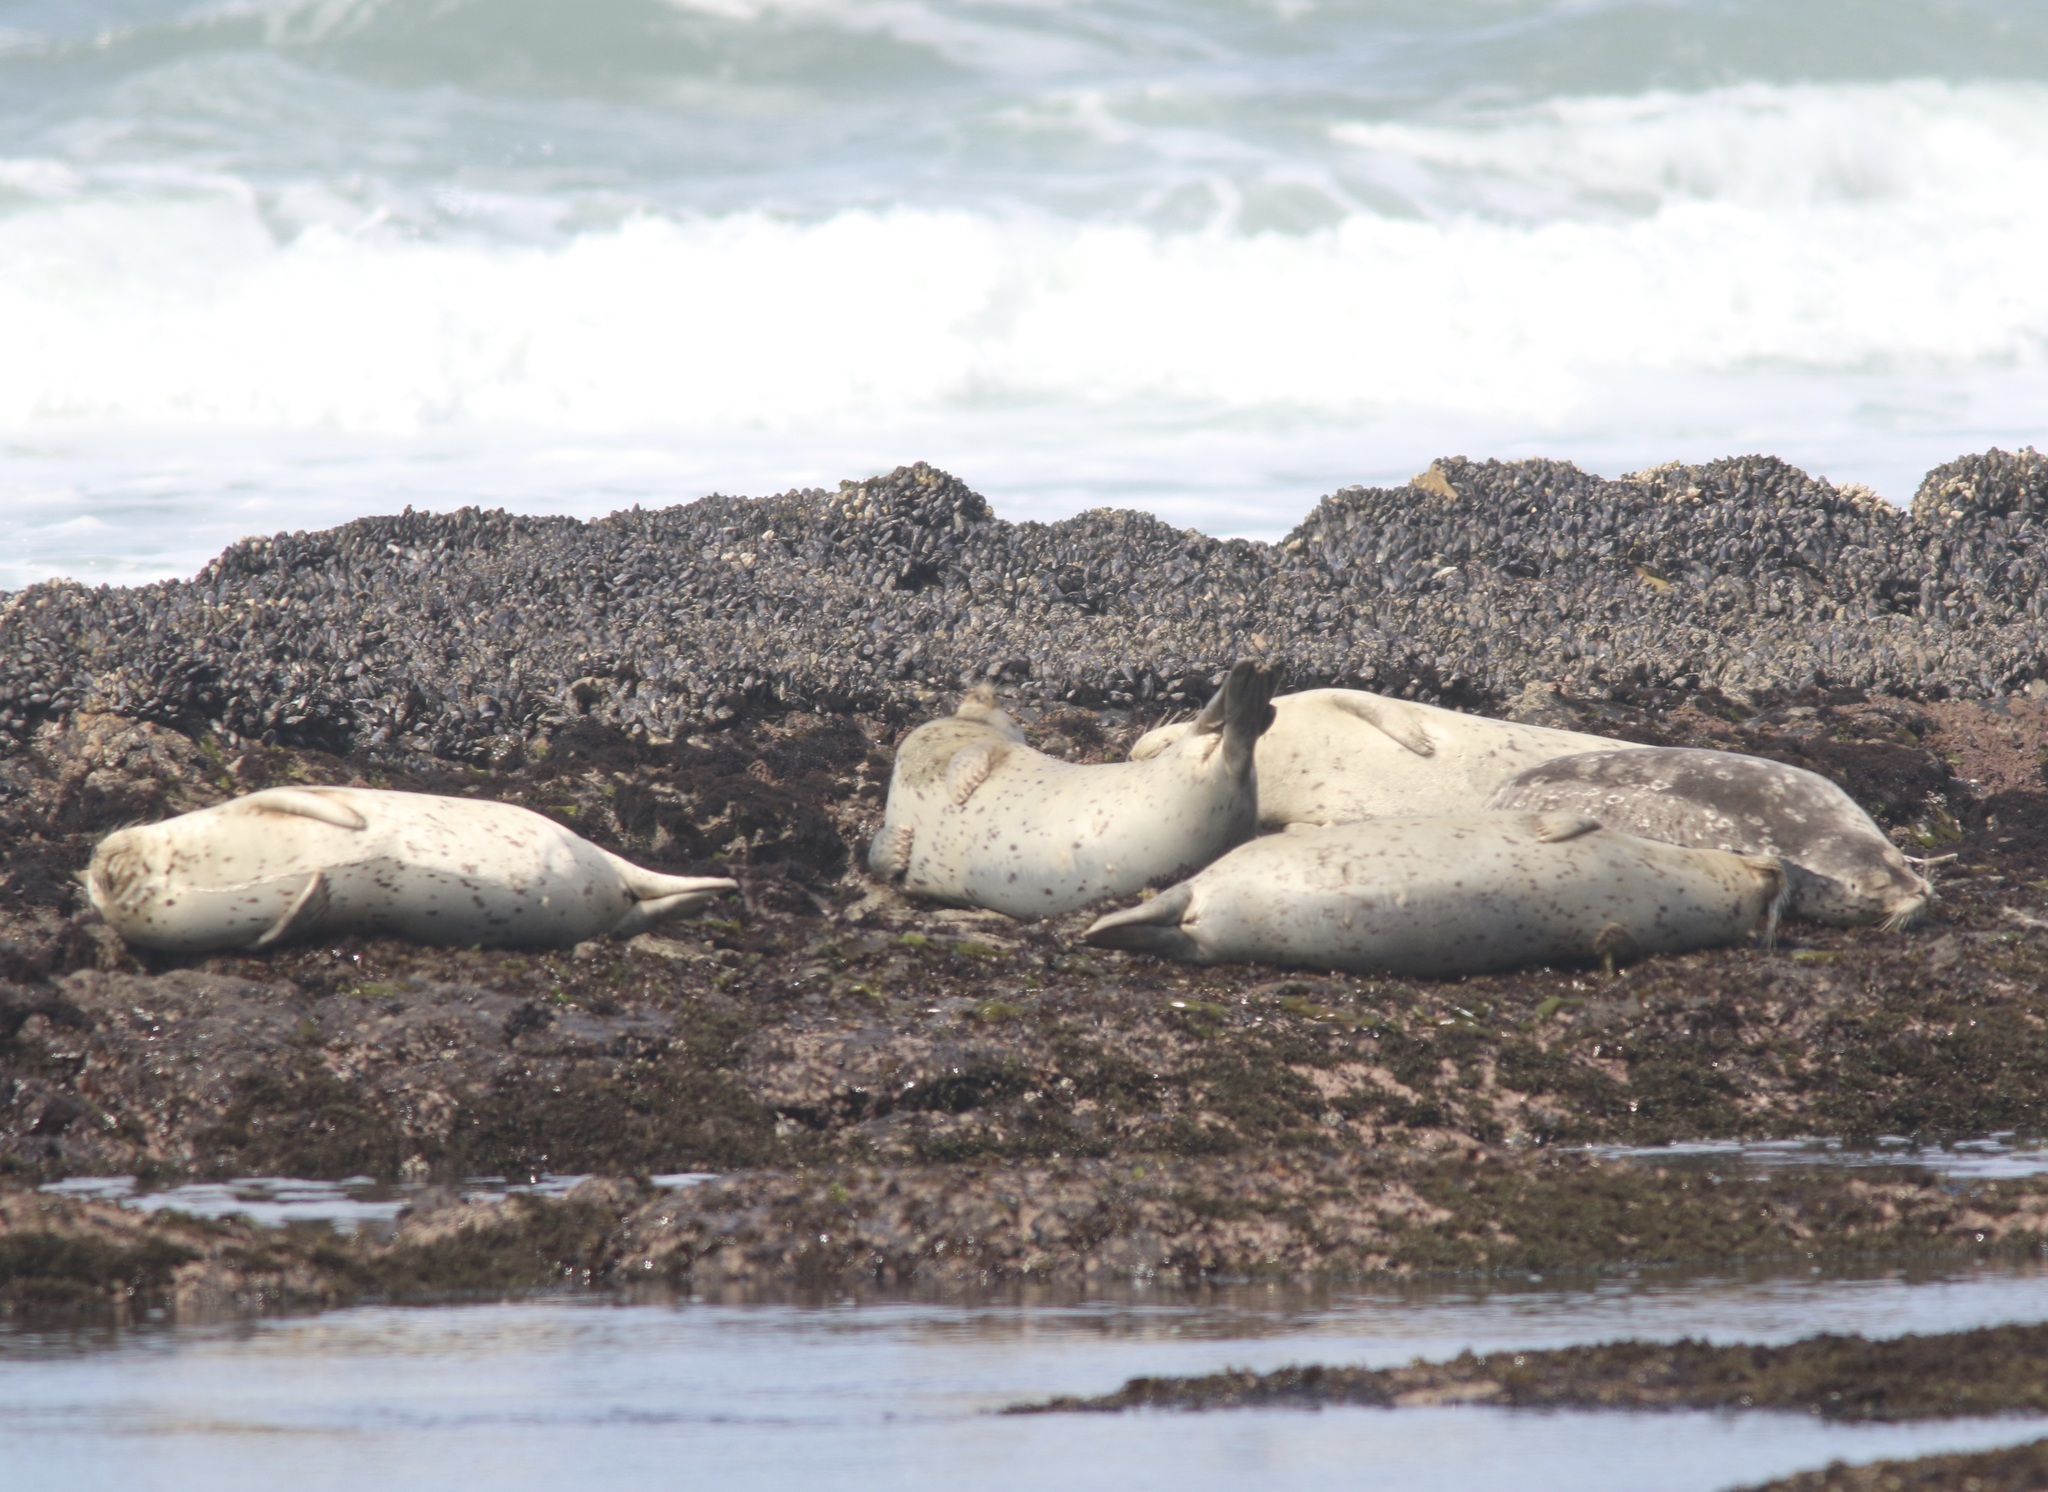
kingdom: Animalia
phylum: Chordata
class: Mammalia
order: Carnivora
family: Phocidae
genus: Phoca
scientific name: Phoca vitulina
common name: Harbor seal
